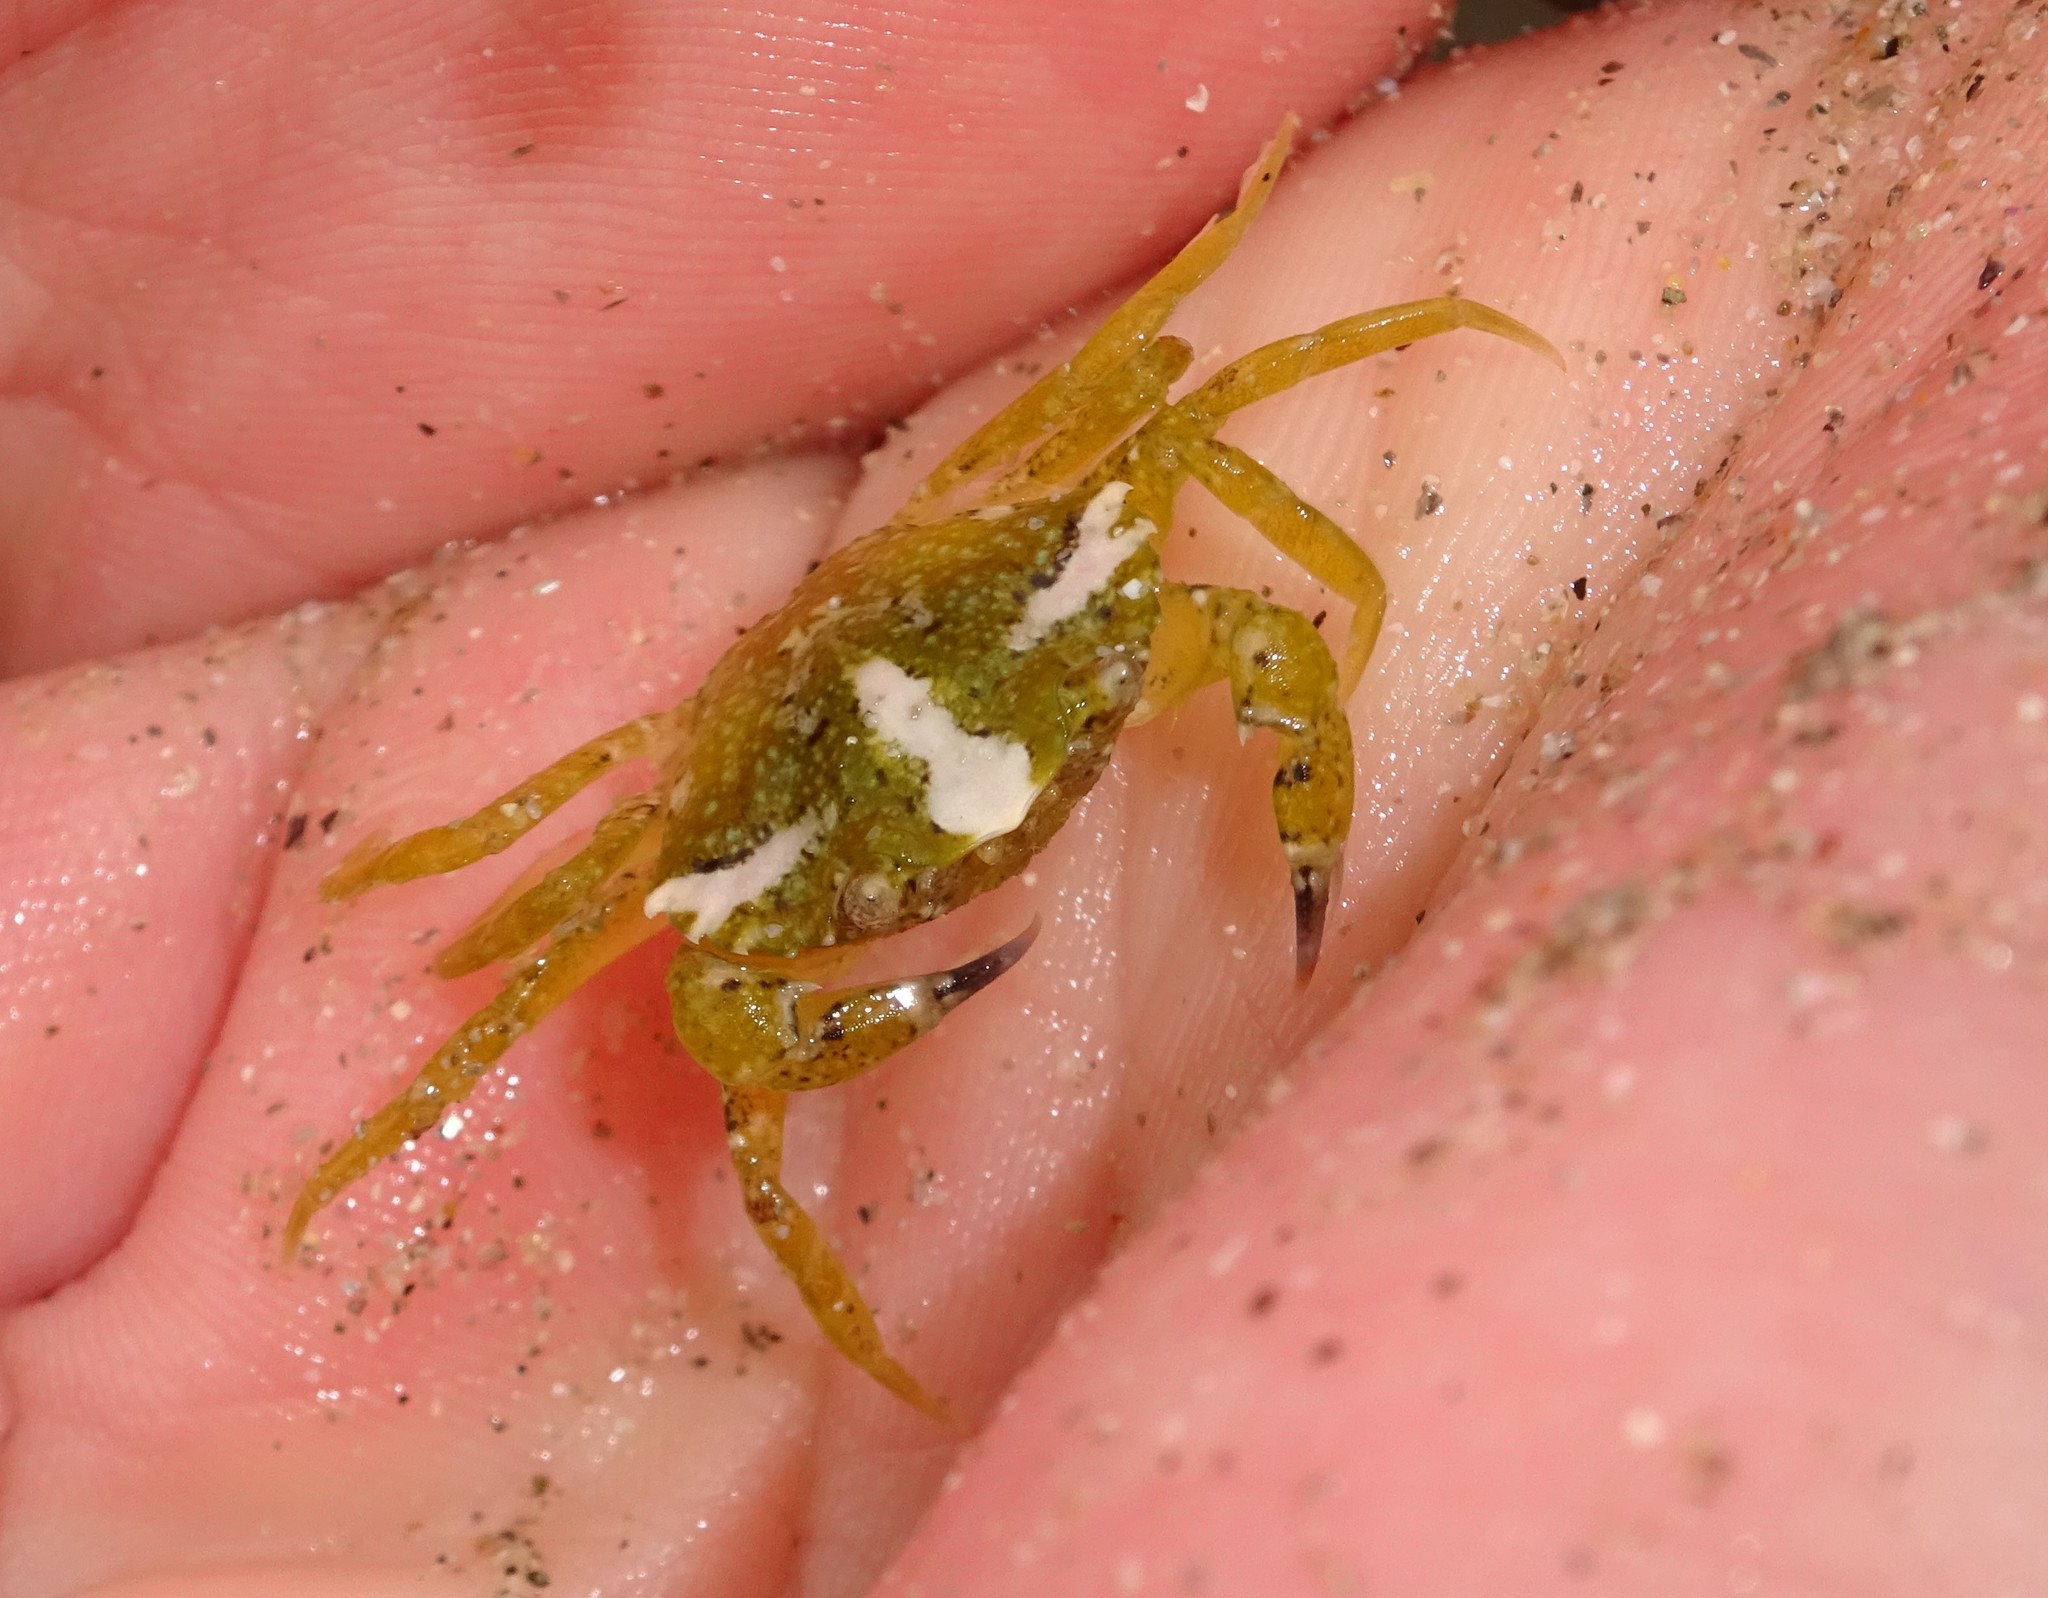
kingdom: Animalia
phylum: Arthropoda
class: Malacostraca
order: Decapoda
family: Carcinidae
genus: Carcinus
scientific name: Carcinus maenas
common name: European green crab
